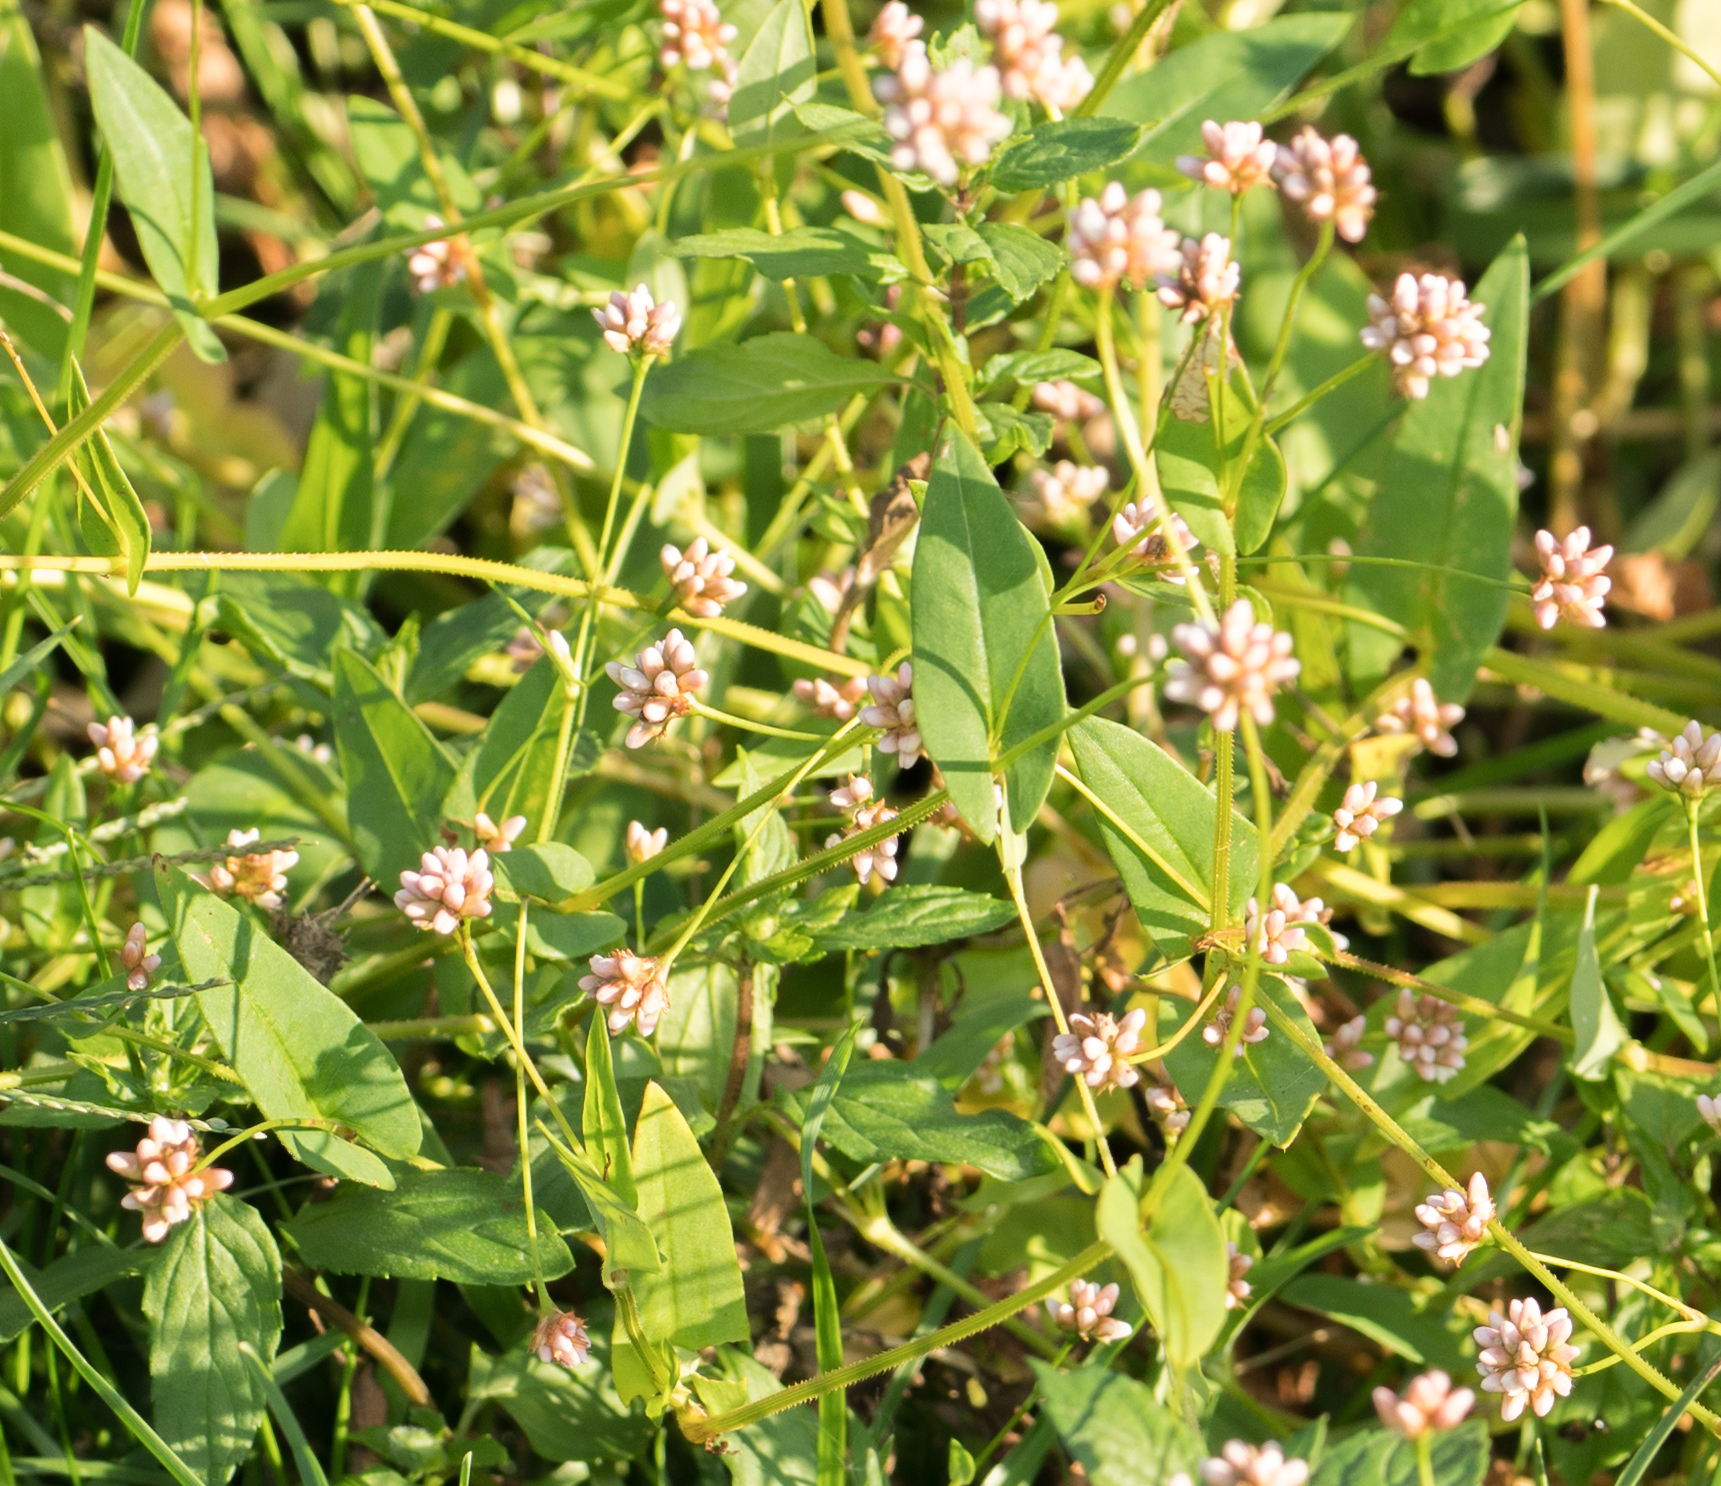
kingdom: Plantae
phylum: Tracheophyta
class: Magnoliopsida
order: Caryophyllales
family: Polygonaceae
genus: Persicaria
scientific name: Persicaria sagittata
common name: American tearthumb
